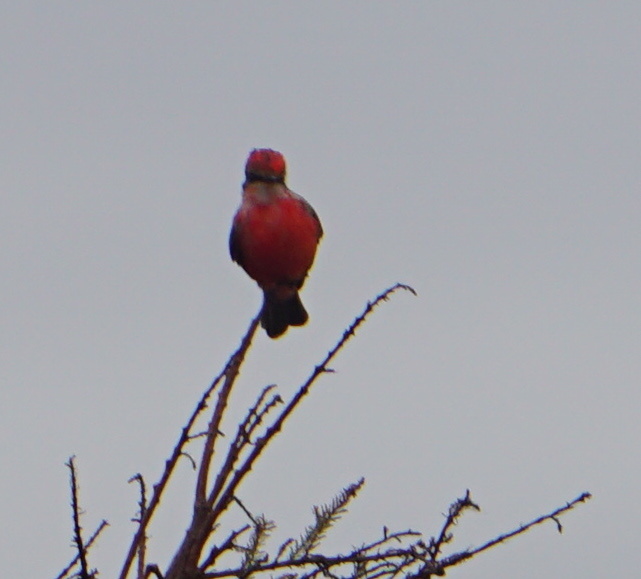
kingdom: Animalia
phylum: Chordata
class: Aves
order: Passeriformes
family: Tyrannidae
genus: Pyrocephalus
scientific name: Pyrocephalus rubinus
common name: Vermilion flycatcher
